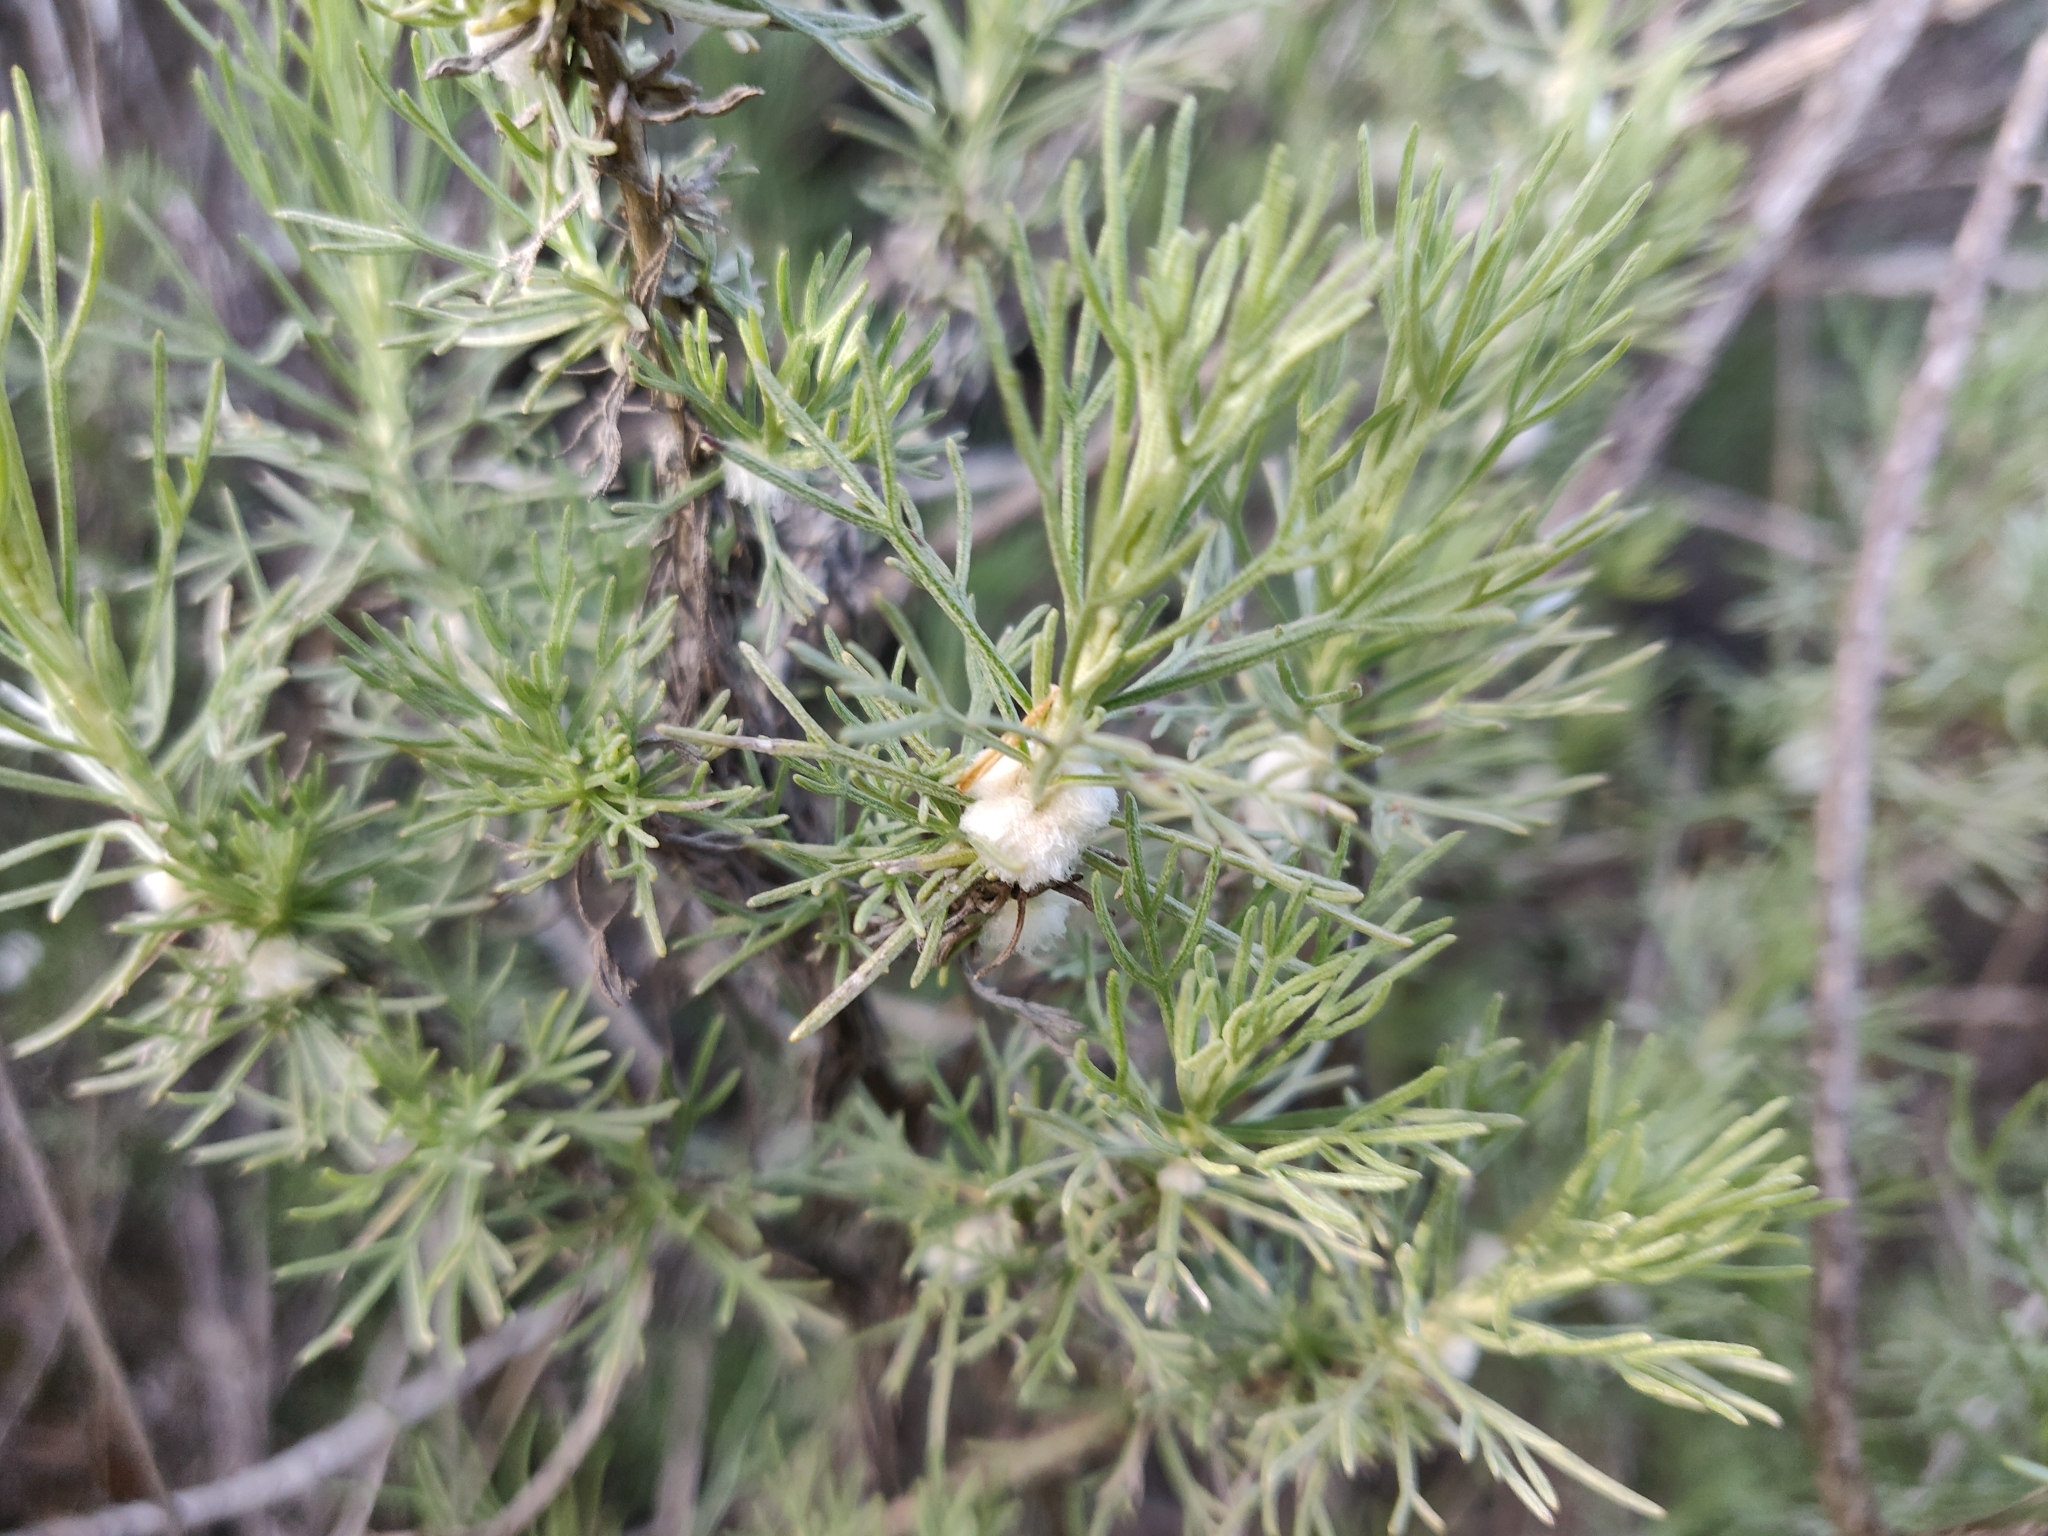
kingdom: Animalia
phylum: Arthropoda
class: Insecta
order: Diptera
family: Cecidomyiidae
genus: Rhopalomyia
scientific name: Rhopalomyia floccosa
